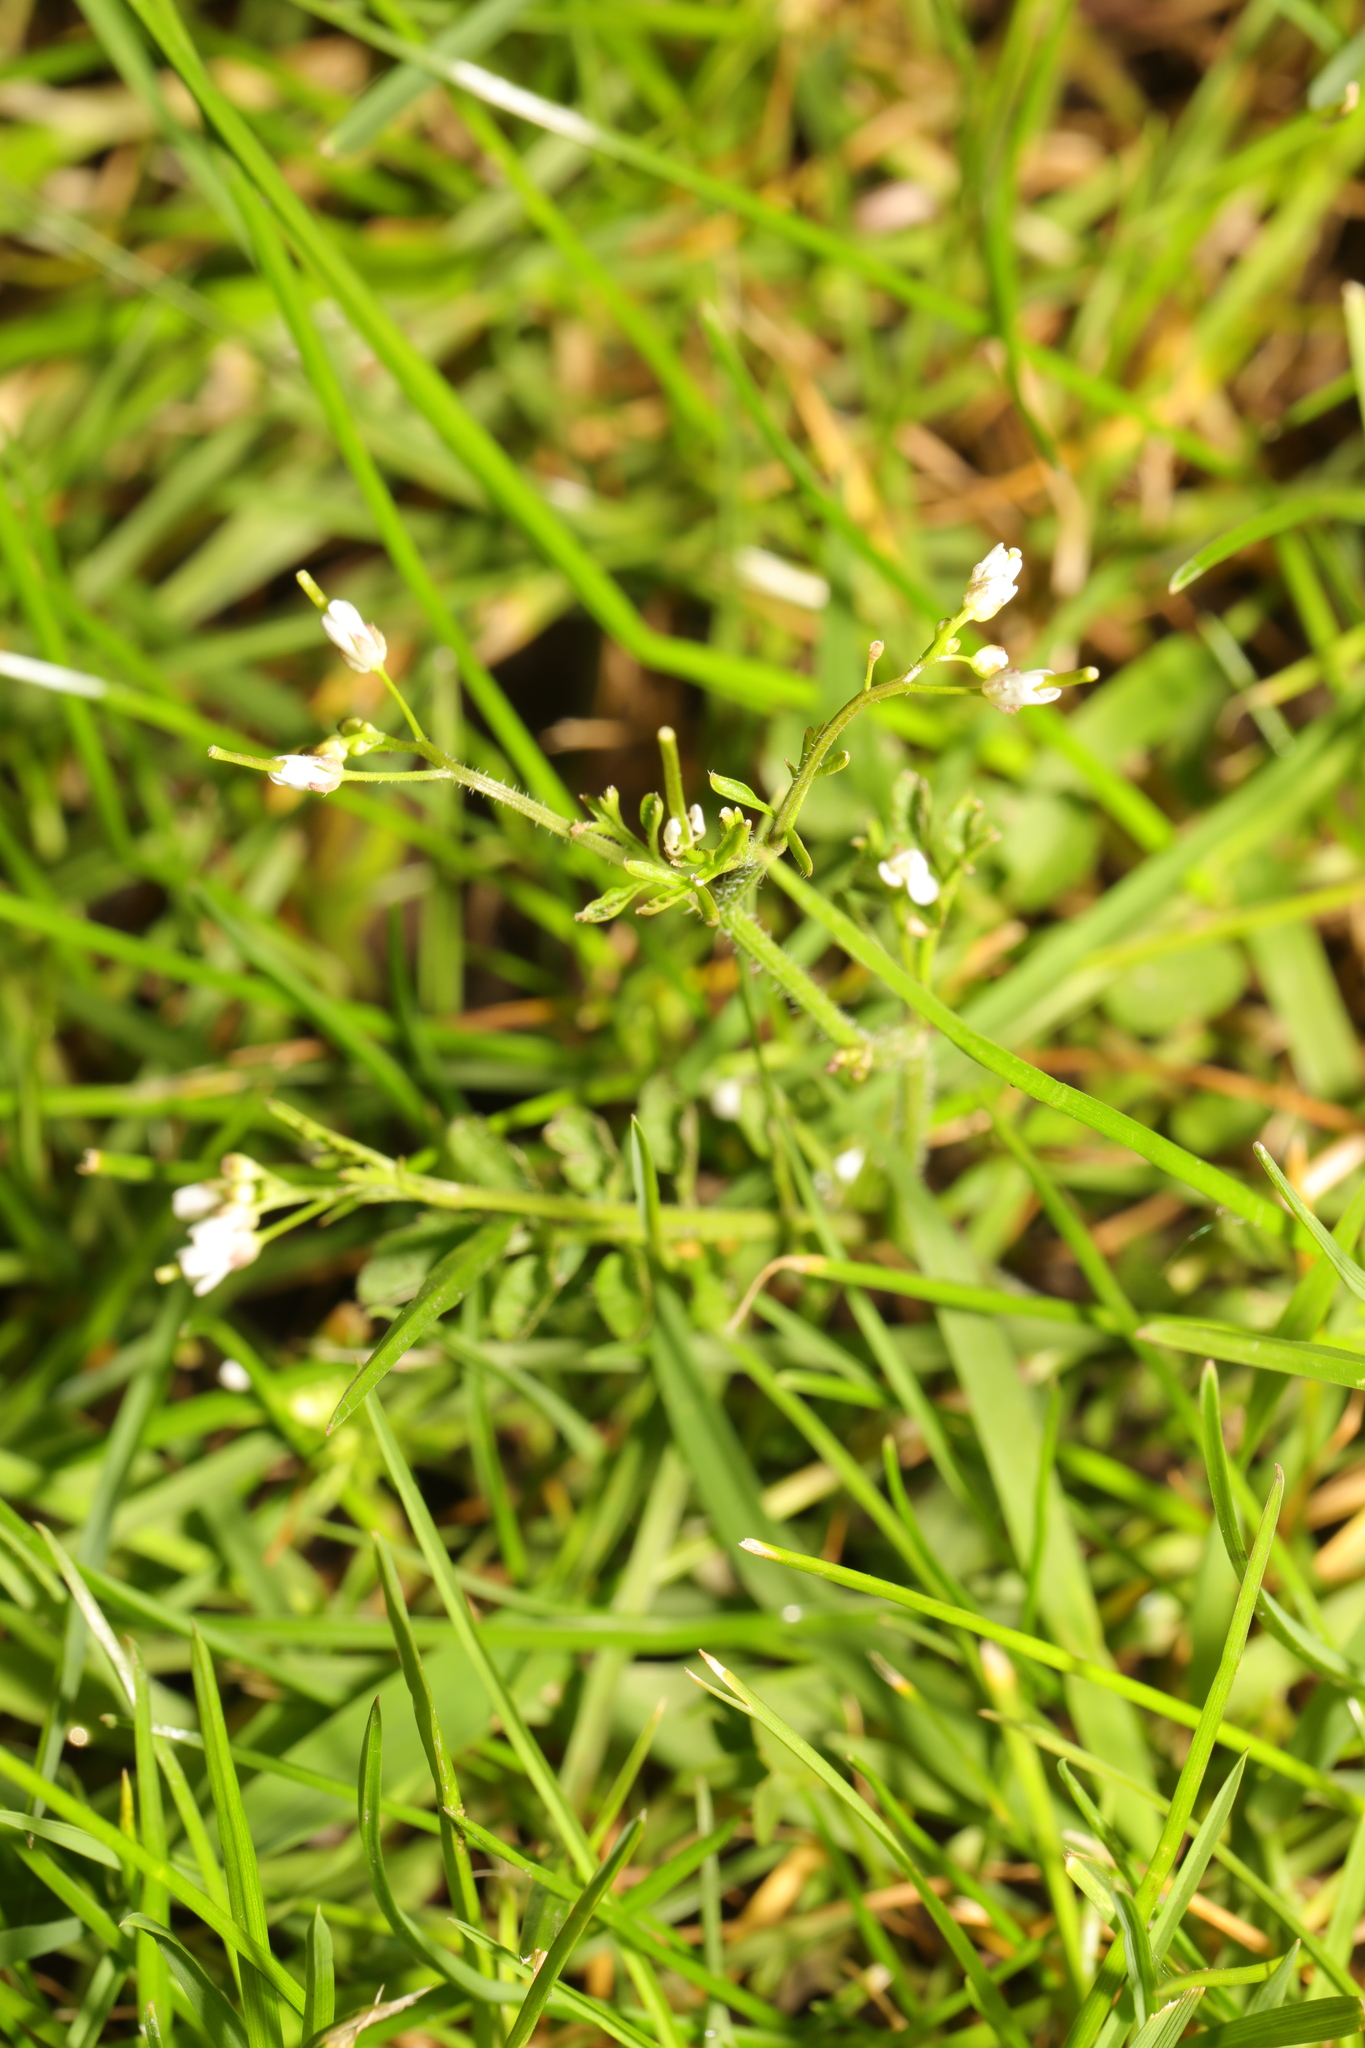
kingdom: Plantae
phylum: Tracheophyta
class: Magnoliopsida
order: Brassicales
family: Brassicaceae
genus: Cardamine
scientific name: Cardamine flexuosa
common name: Woodland bittercress
